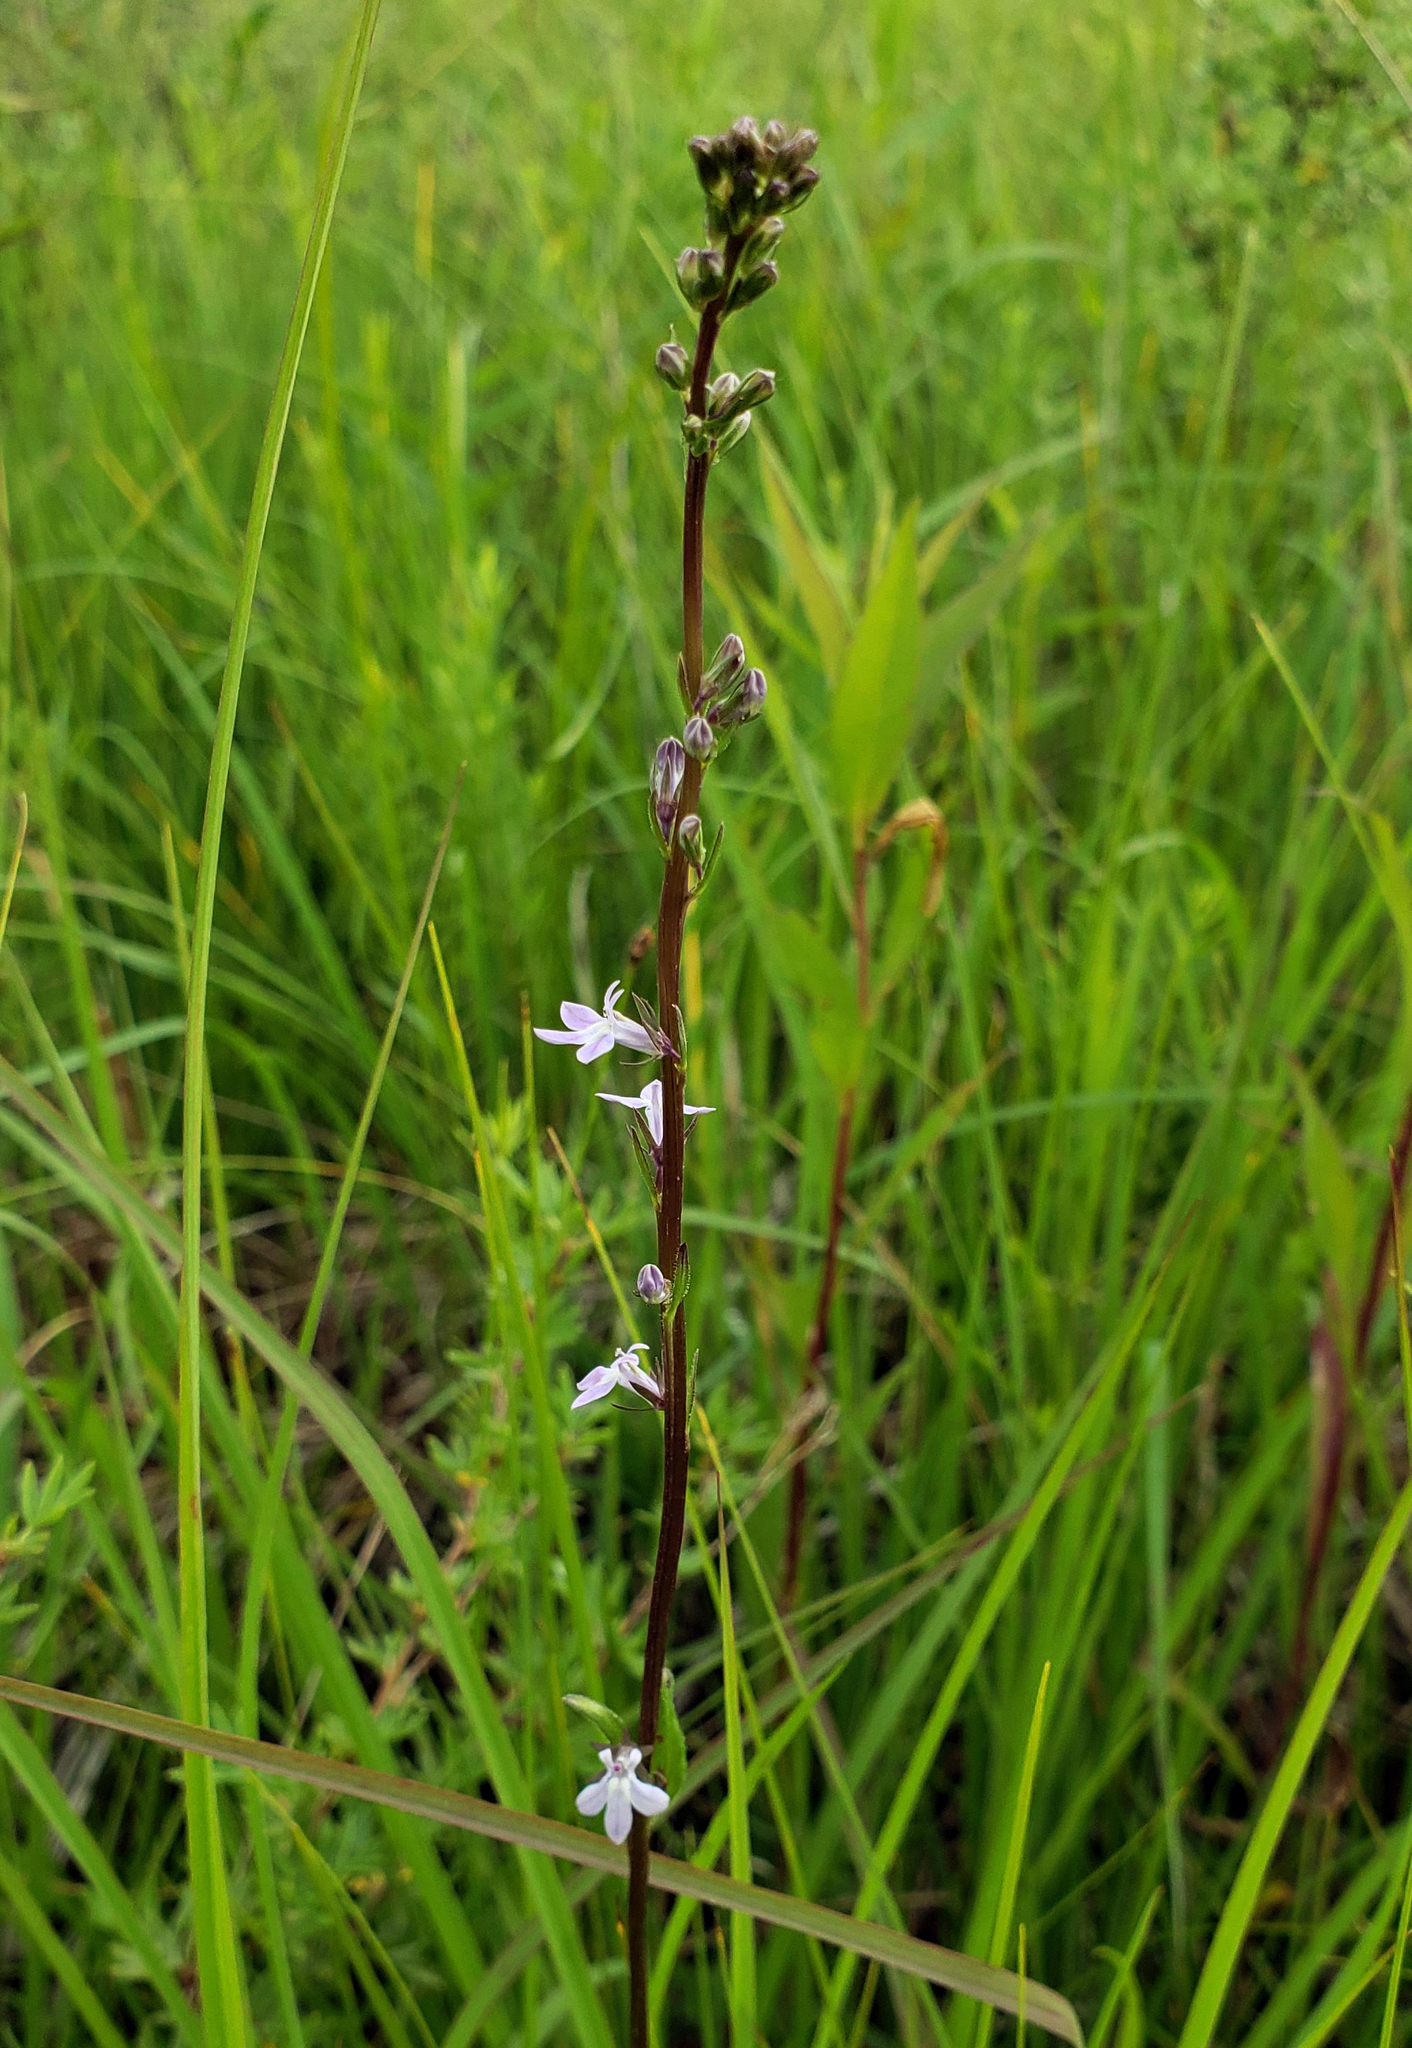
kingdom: Plantae
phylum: Tracheophyta
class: Magnoliopsida
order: Asterales
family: Campanulaceae
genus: Lobelia
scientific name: Lobelia spicata
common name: Pale-spike lobelia
